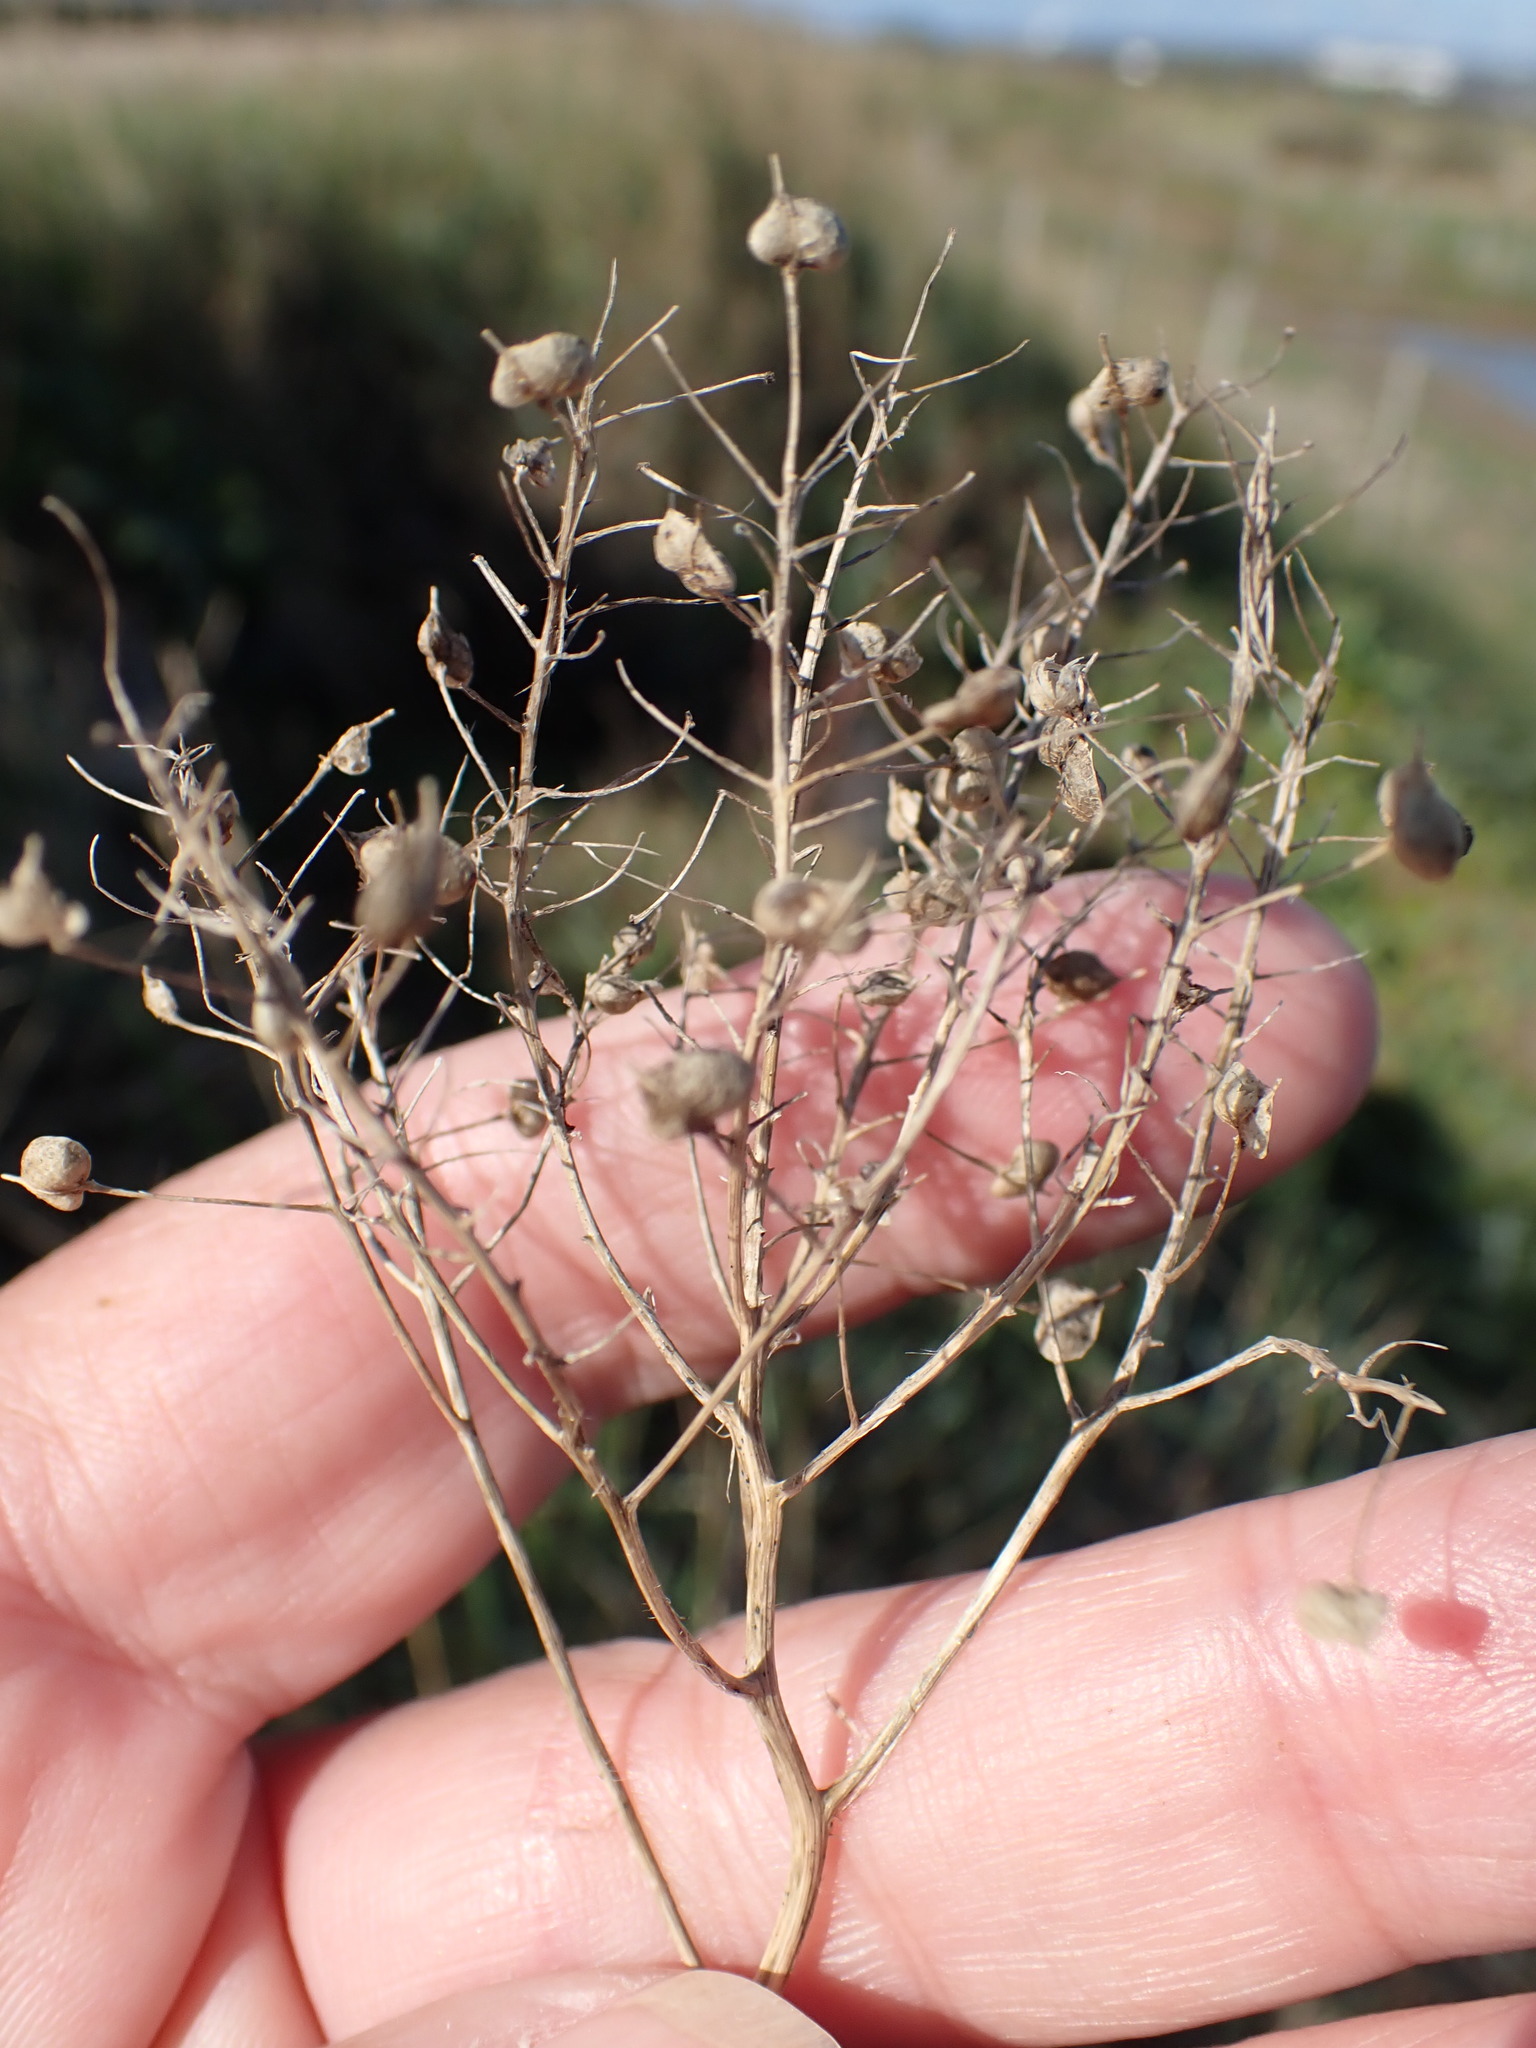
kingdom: Plantae
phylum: Tracheophyta
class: Magnoliopsida
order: Brassicales
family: Brassicaceae
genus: Lepidium
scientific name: Lepidium draba
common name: Hoary cress
